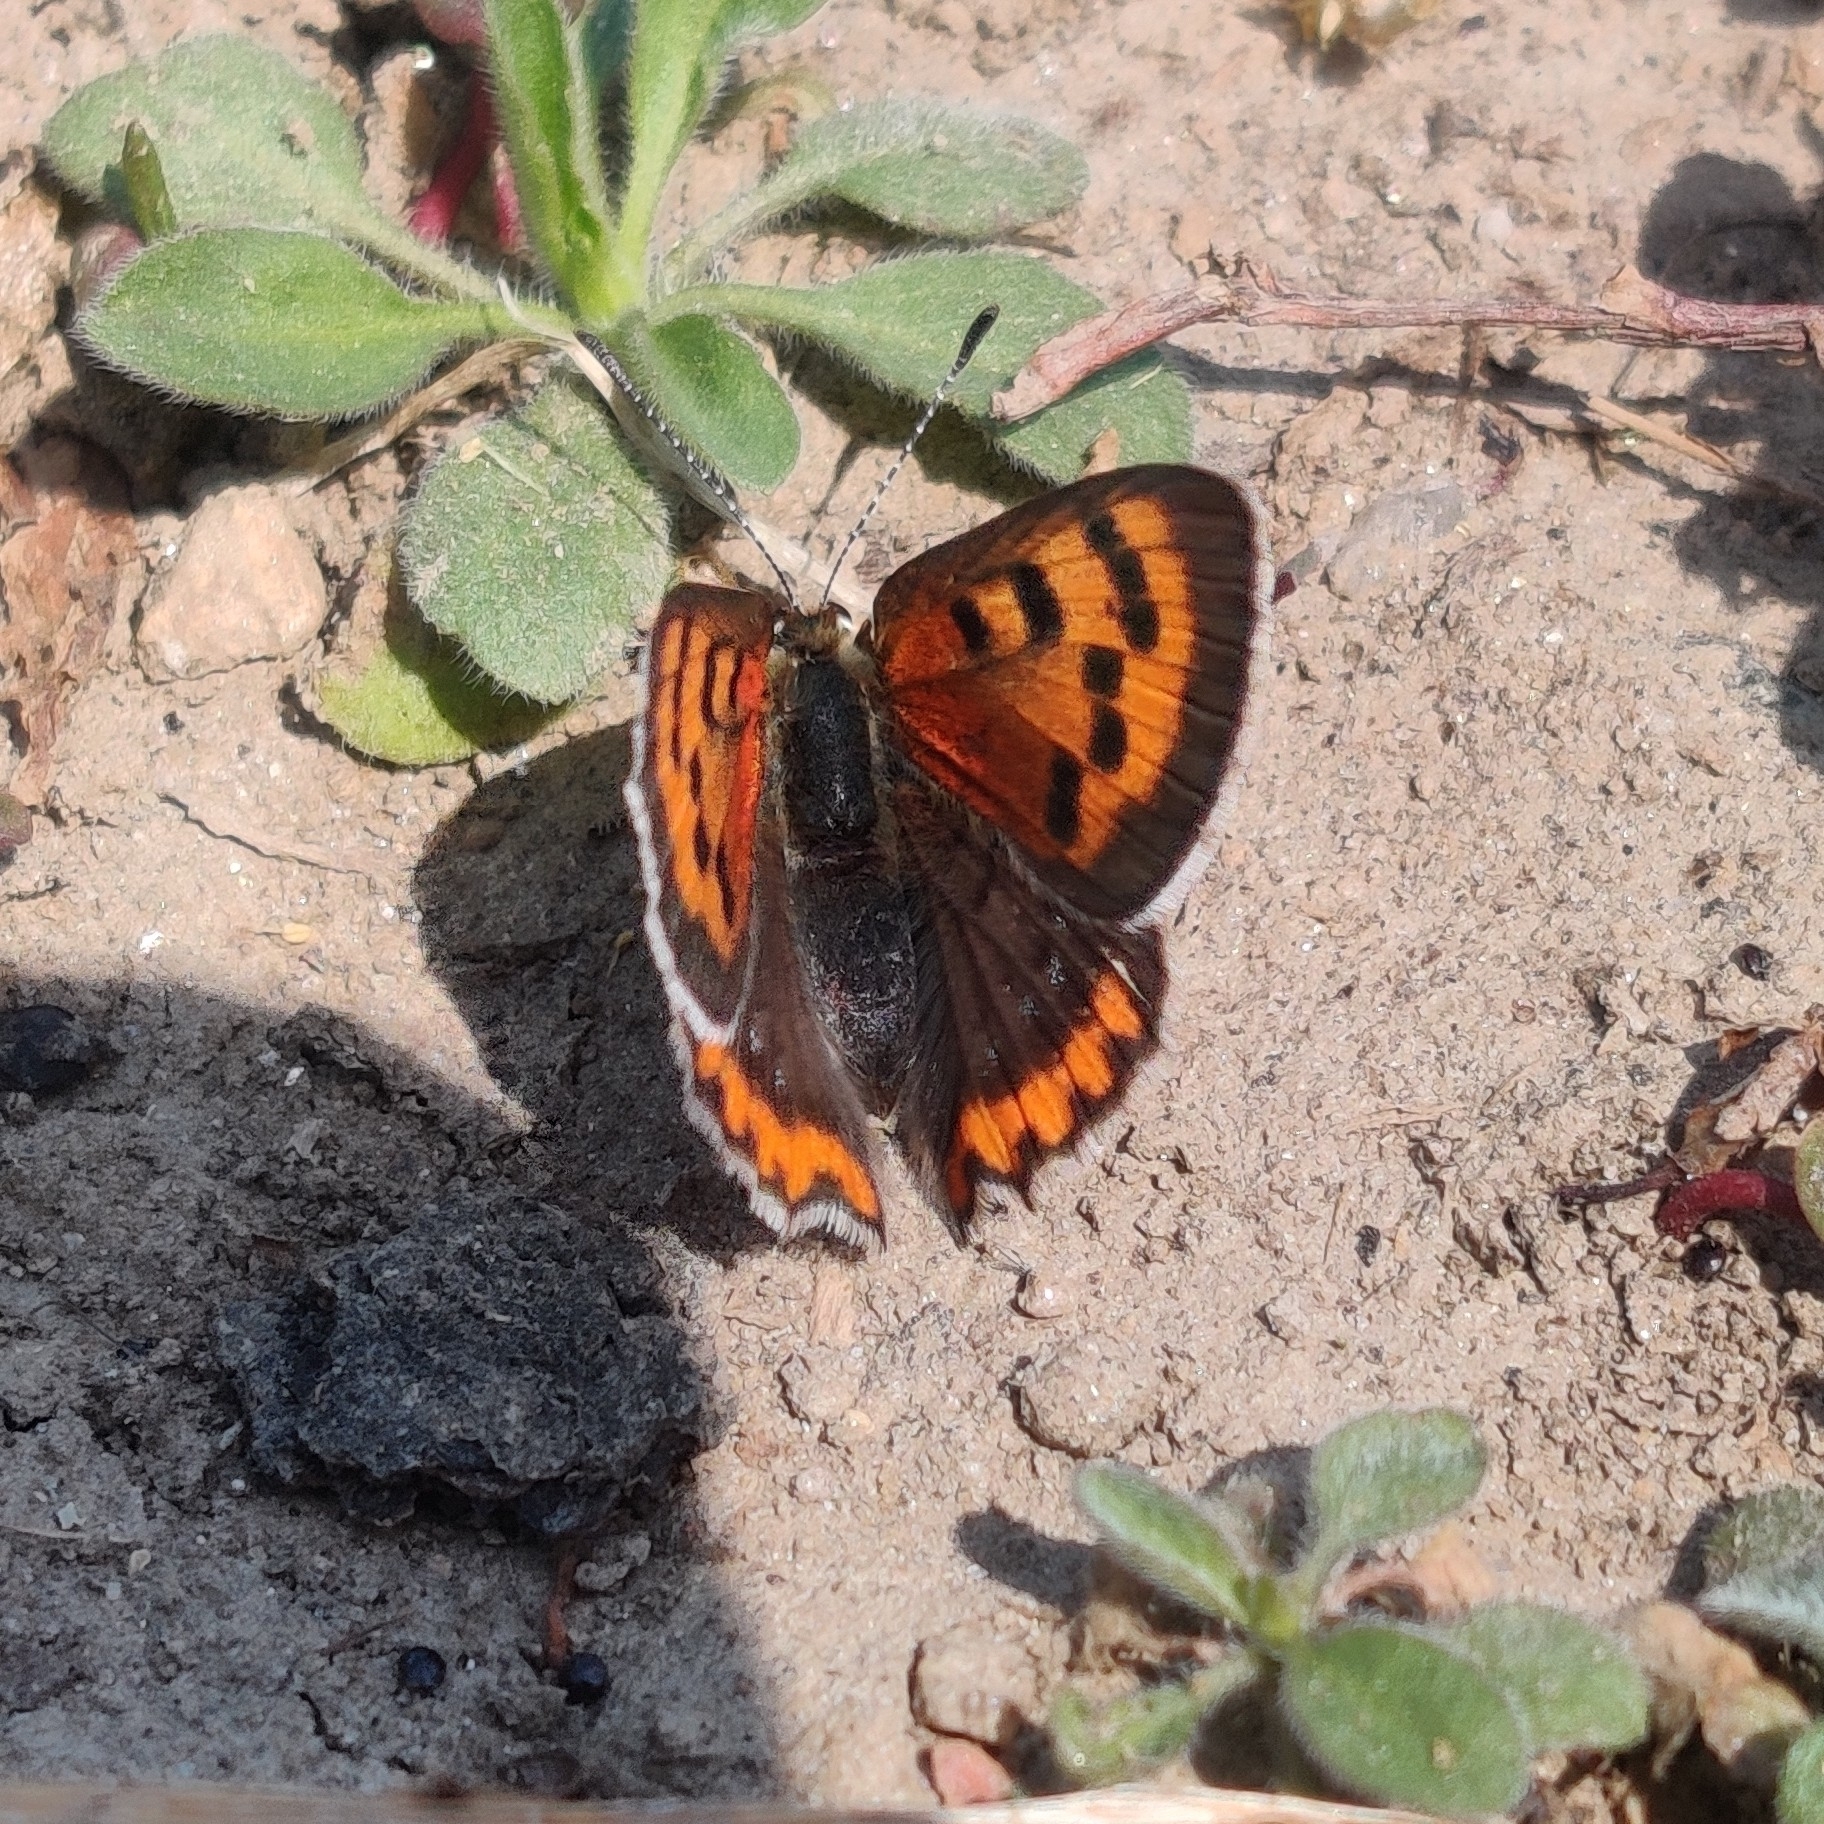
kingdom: Animalia
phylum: Arthropoda
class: Insecta
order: Lepidoptera
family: Lycaenidae
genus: Lycaena
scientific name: Lycaena phlaeas
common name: Small copper
